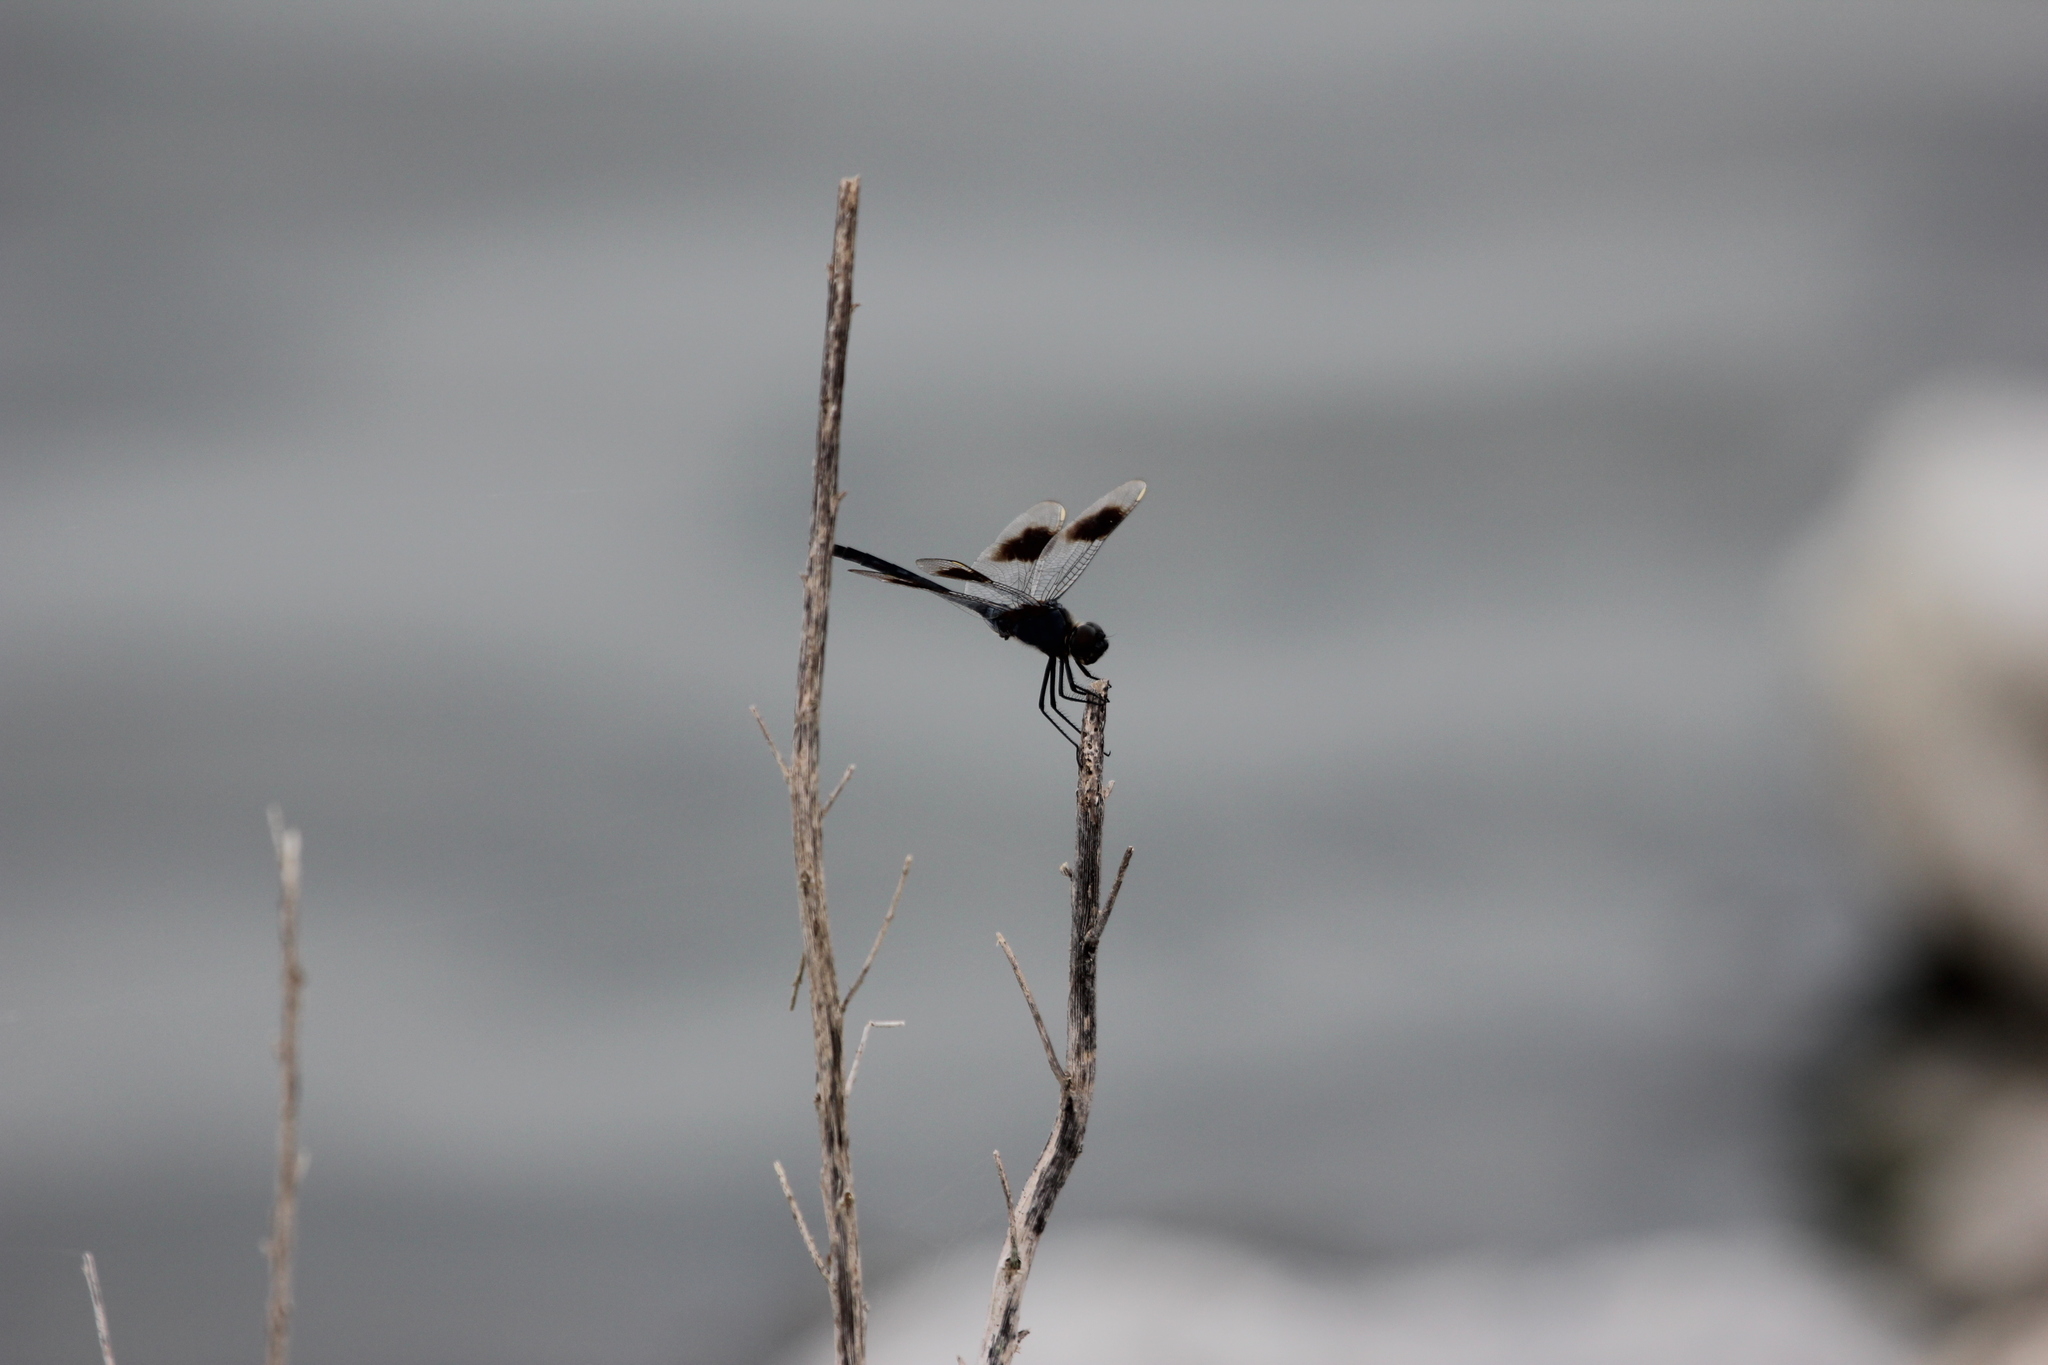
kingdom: Animalia
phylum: Arthropoda
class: Insecta
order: Odonata
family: Libellulidae
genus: Brachymesia
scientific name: Brachymesia gravida
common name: Four-spotted pennant
